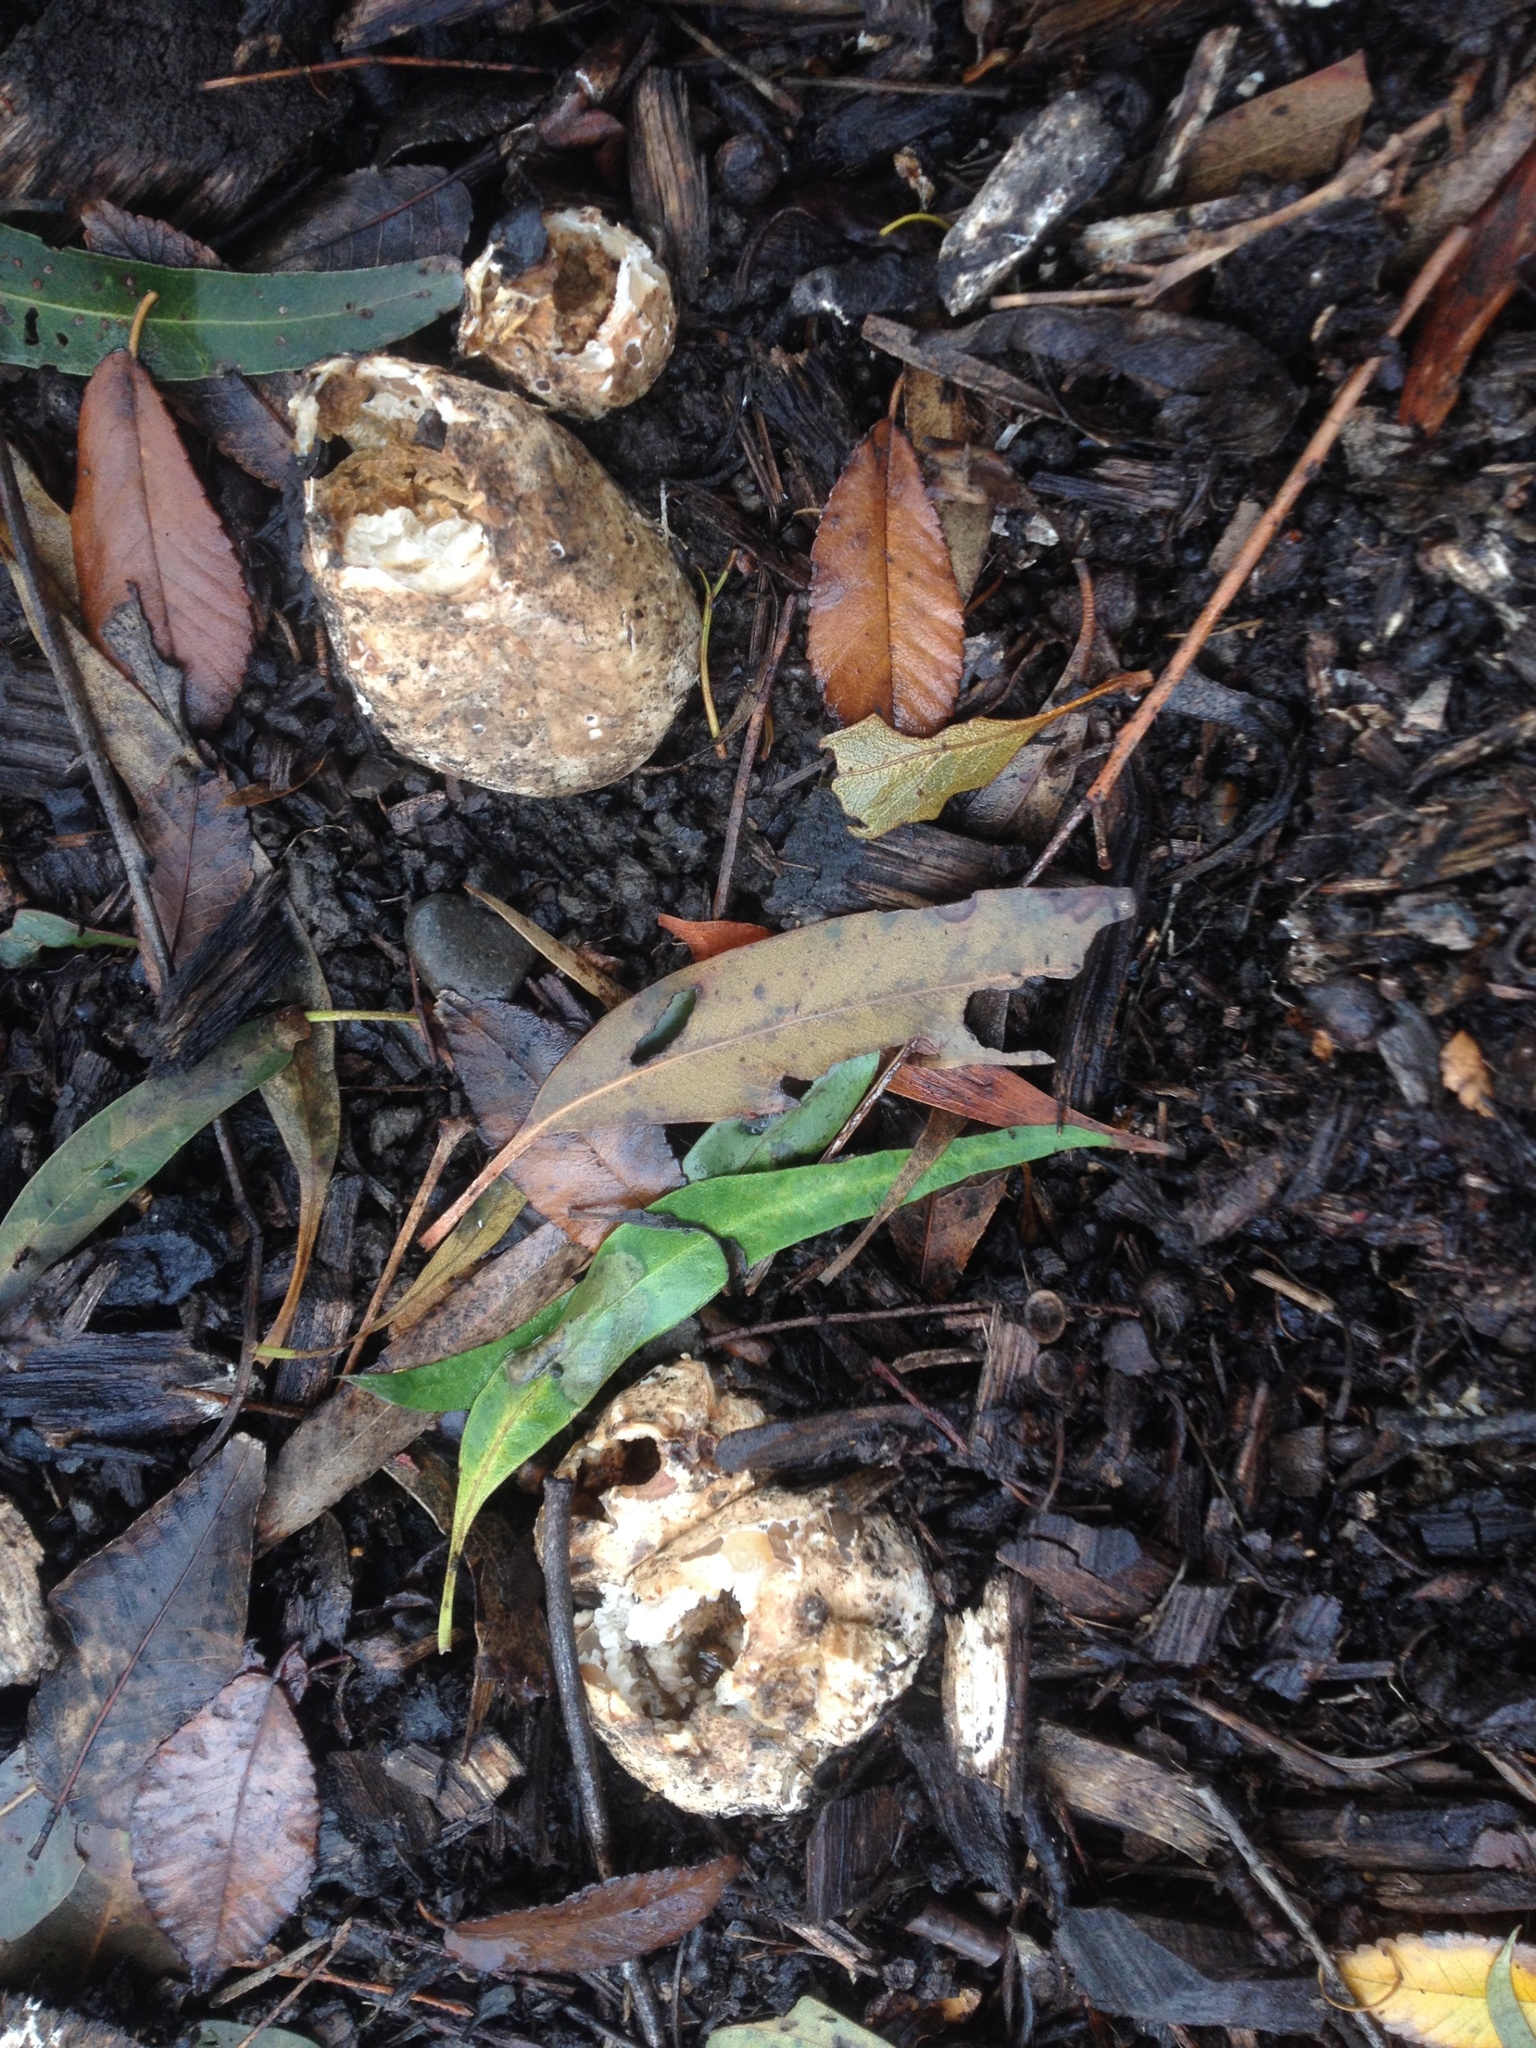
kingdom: Fungi
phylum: Basidiomycota
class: Agaricomycetes
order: Phallales
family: Phallaceae
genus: Ileodictyon
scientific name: Ileodictyon cibarium
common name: Basket fungus
